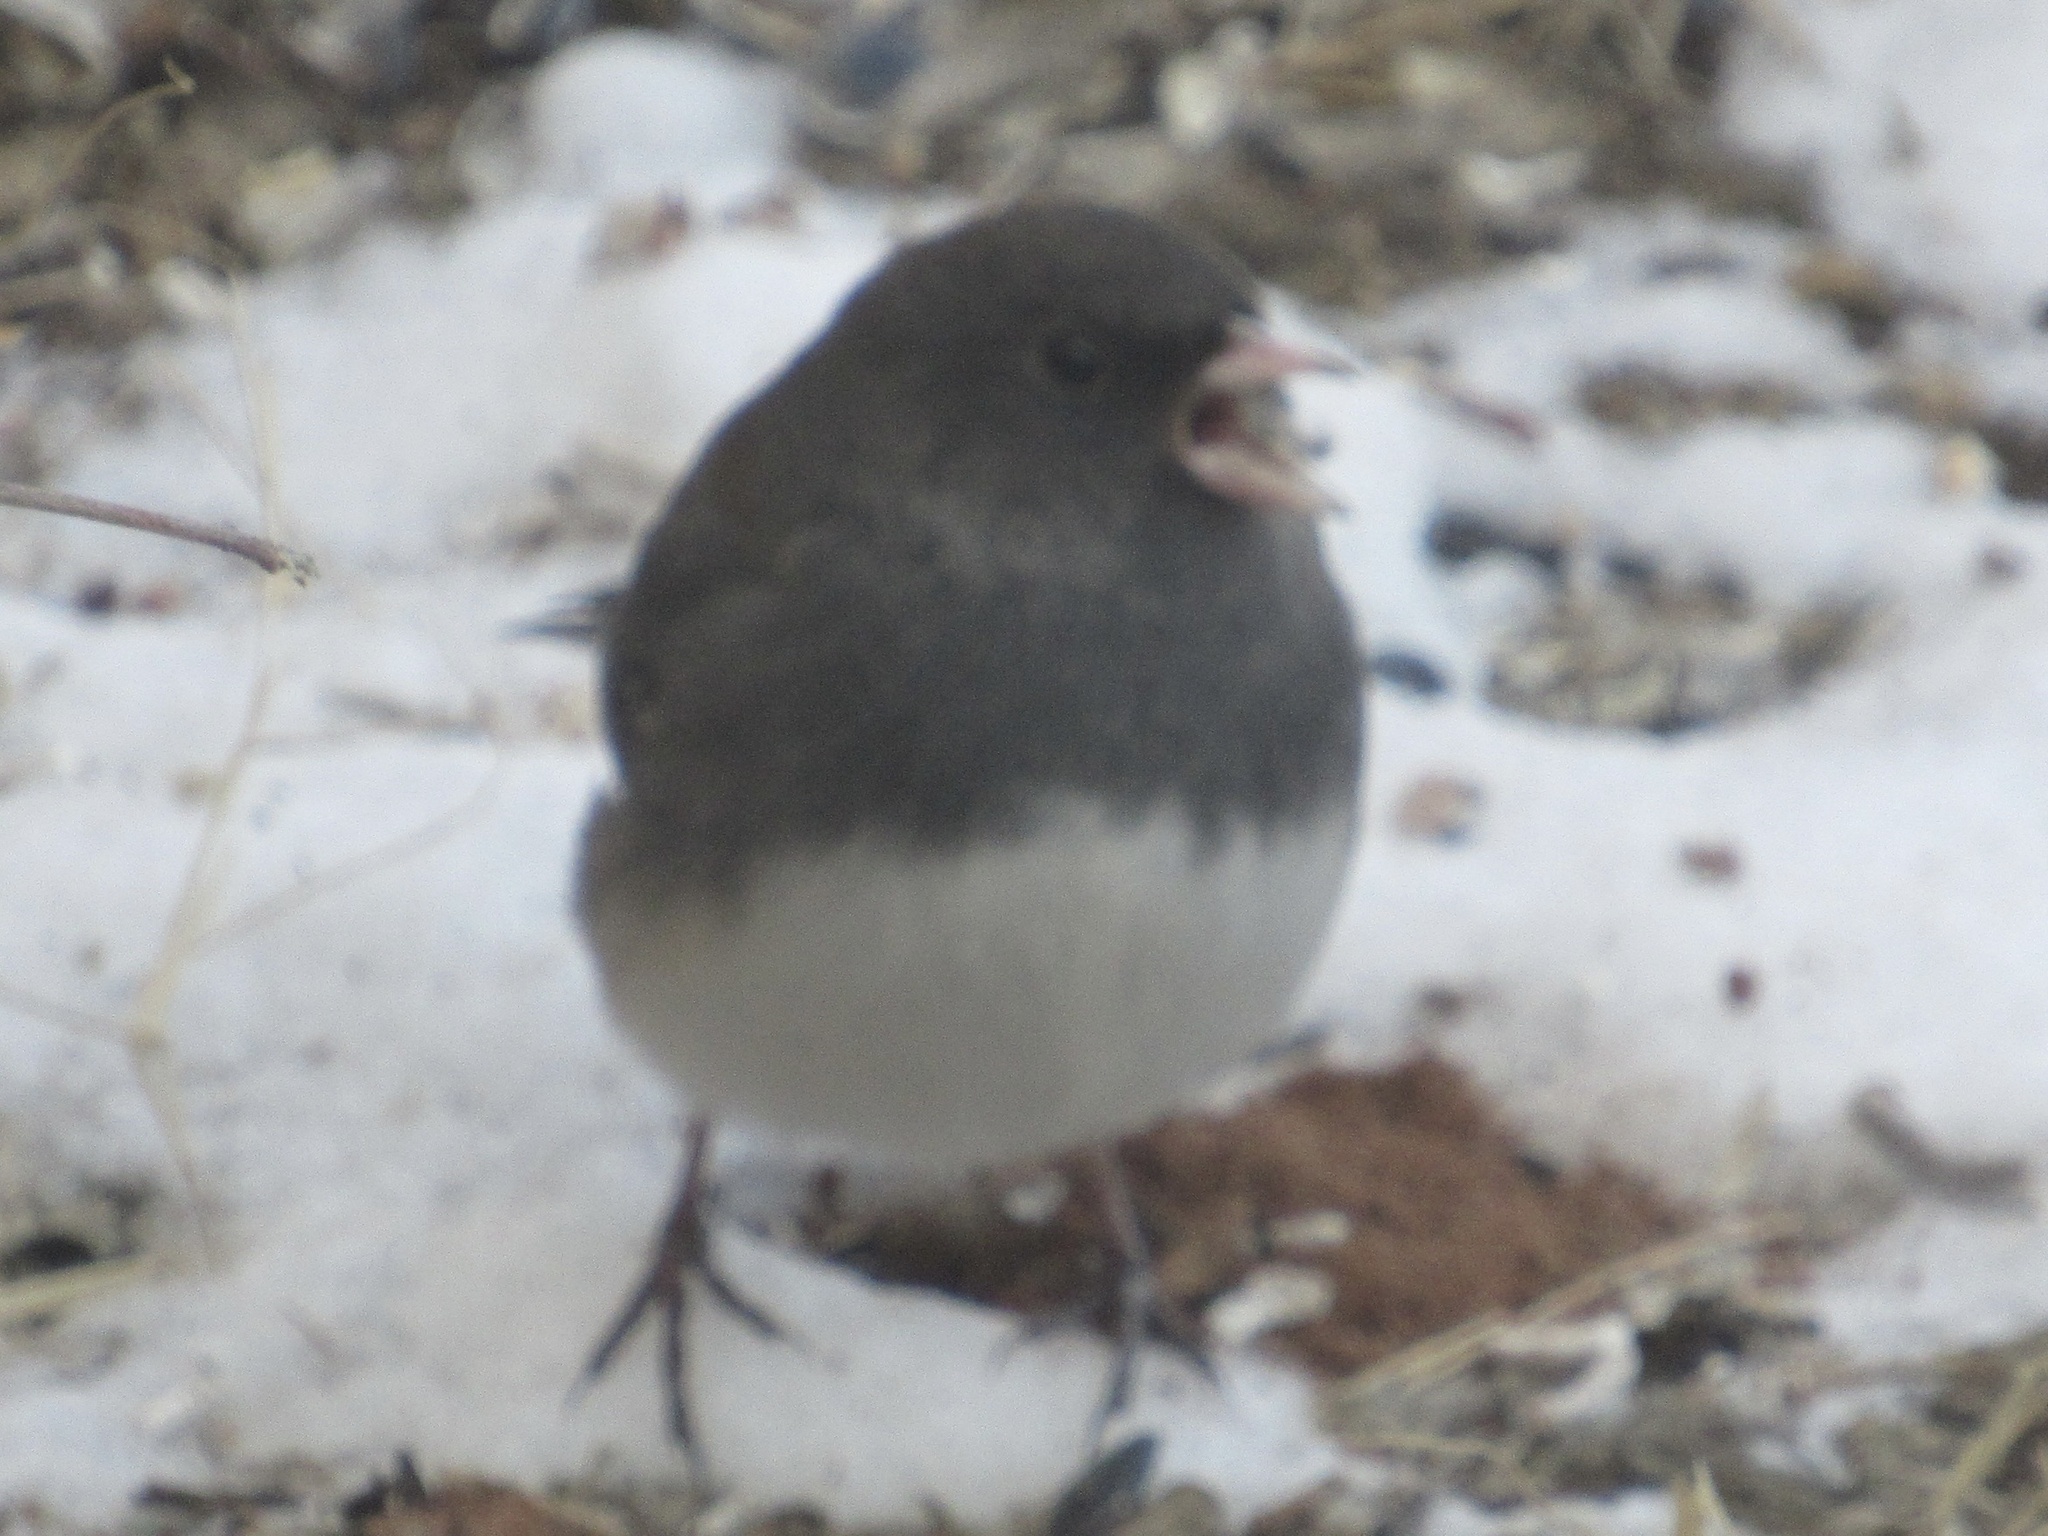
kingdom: Animalia
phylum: Chordata
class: Aves
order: Passeriformes
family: Passerellidae
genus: Junco
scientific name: Junco hyemalis
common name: Dark-eyed junco
